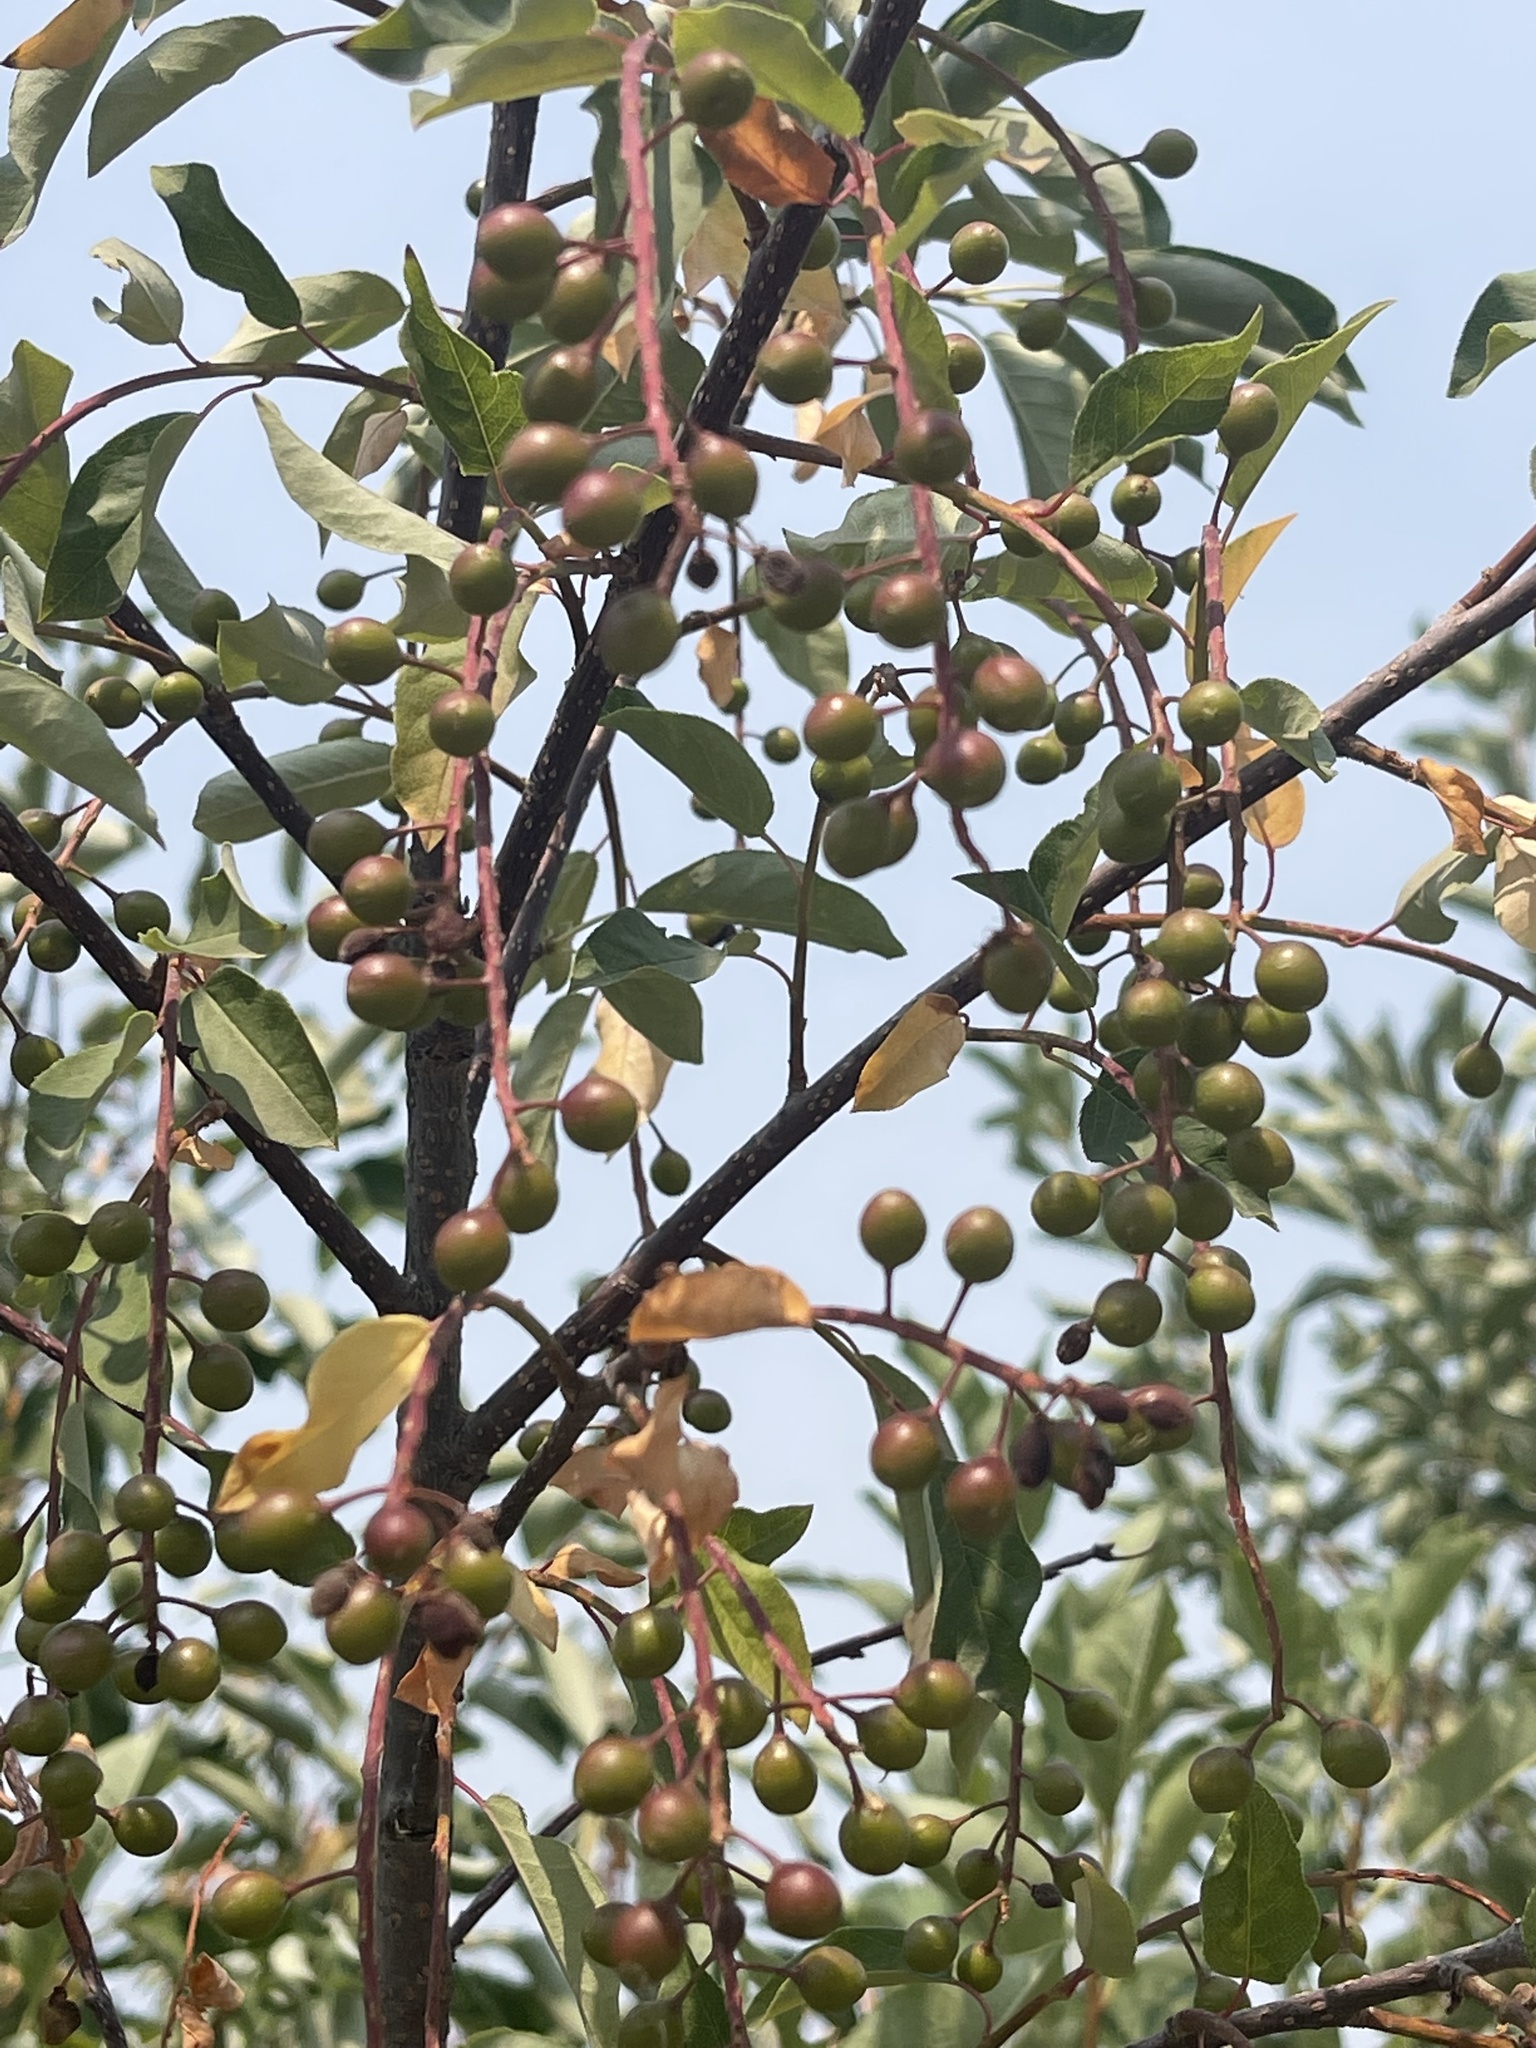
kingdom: Plantae
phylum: Tracheophyta
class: Magnoliopsida
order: Rosales
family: Elaeagnaceae
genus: Elaeagnus
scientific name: Elaeagnus angustifolia
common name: Russian olive
